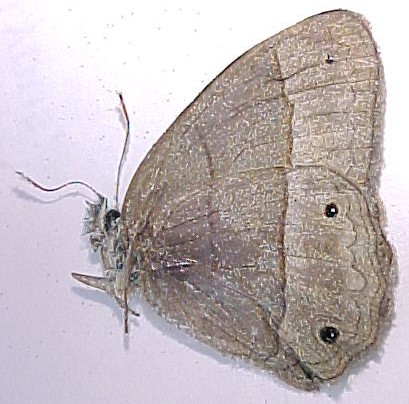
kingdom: Animalia
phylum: Arthropoda
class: Insecta
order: Lepidoptera
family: Nymphalidae
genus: Euptychia
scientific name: Euptychia Cissia pompilia
